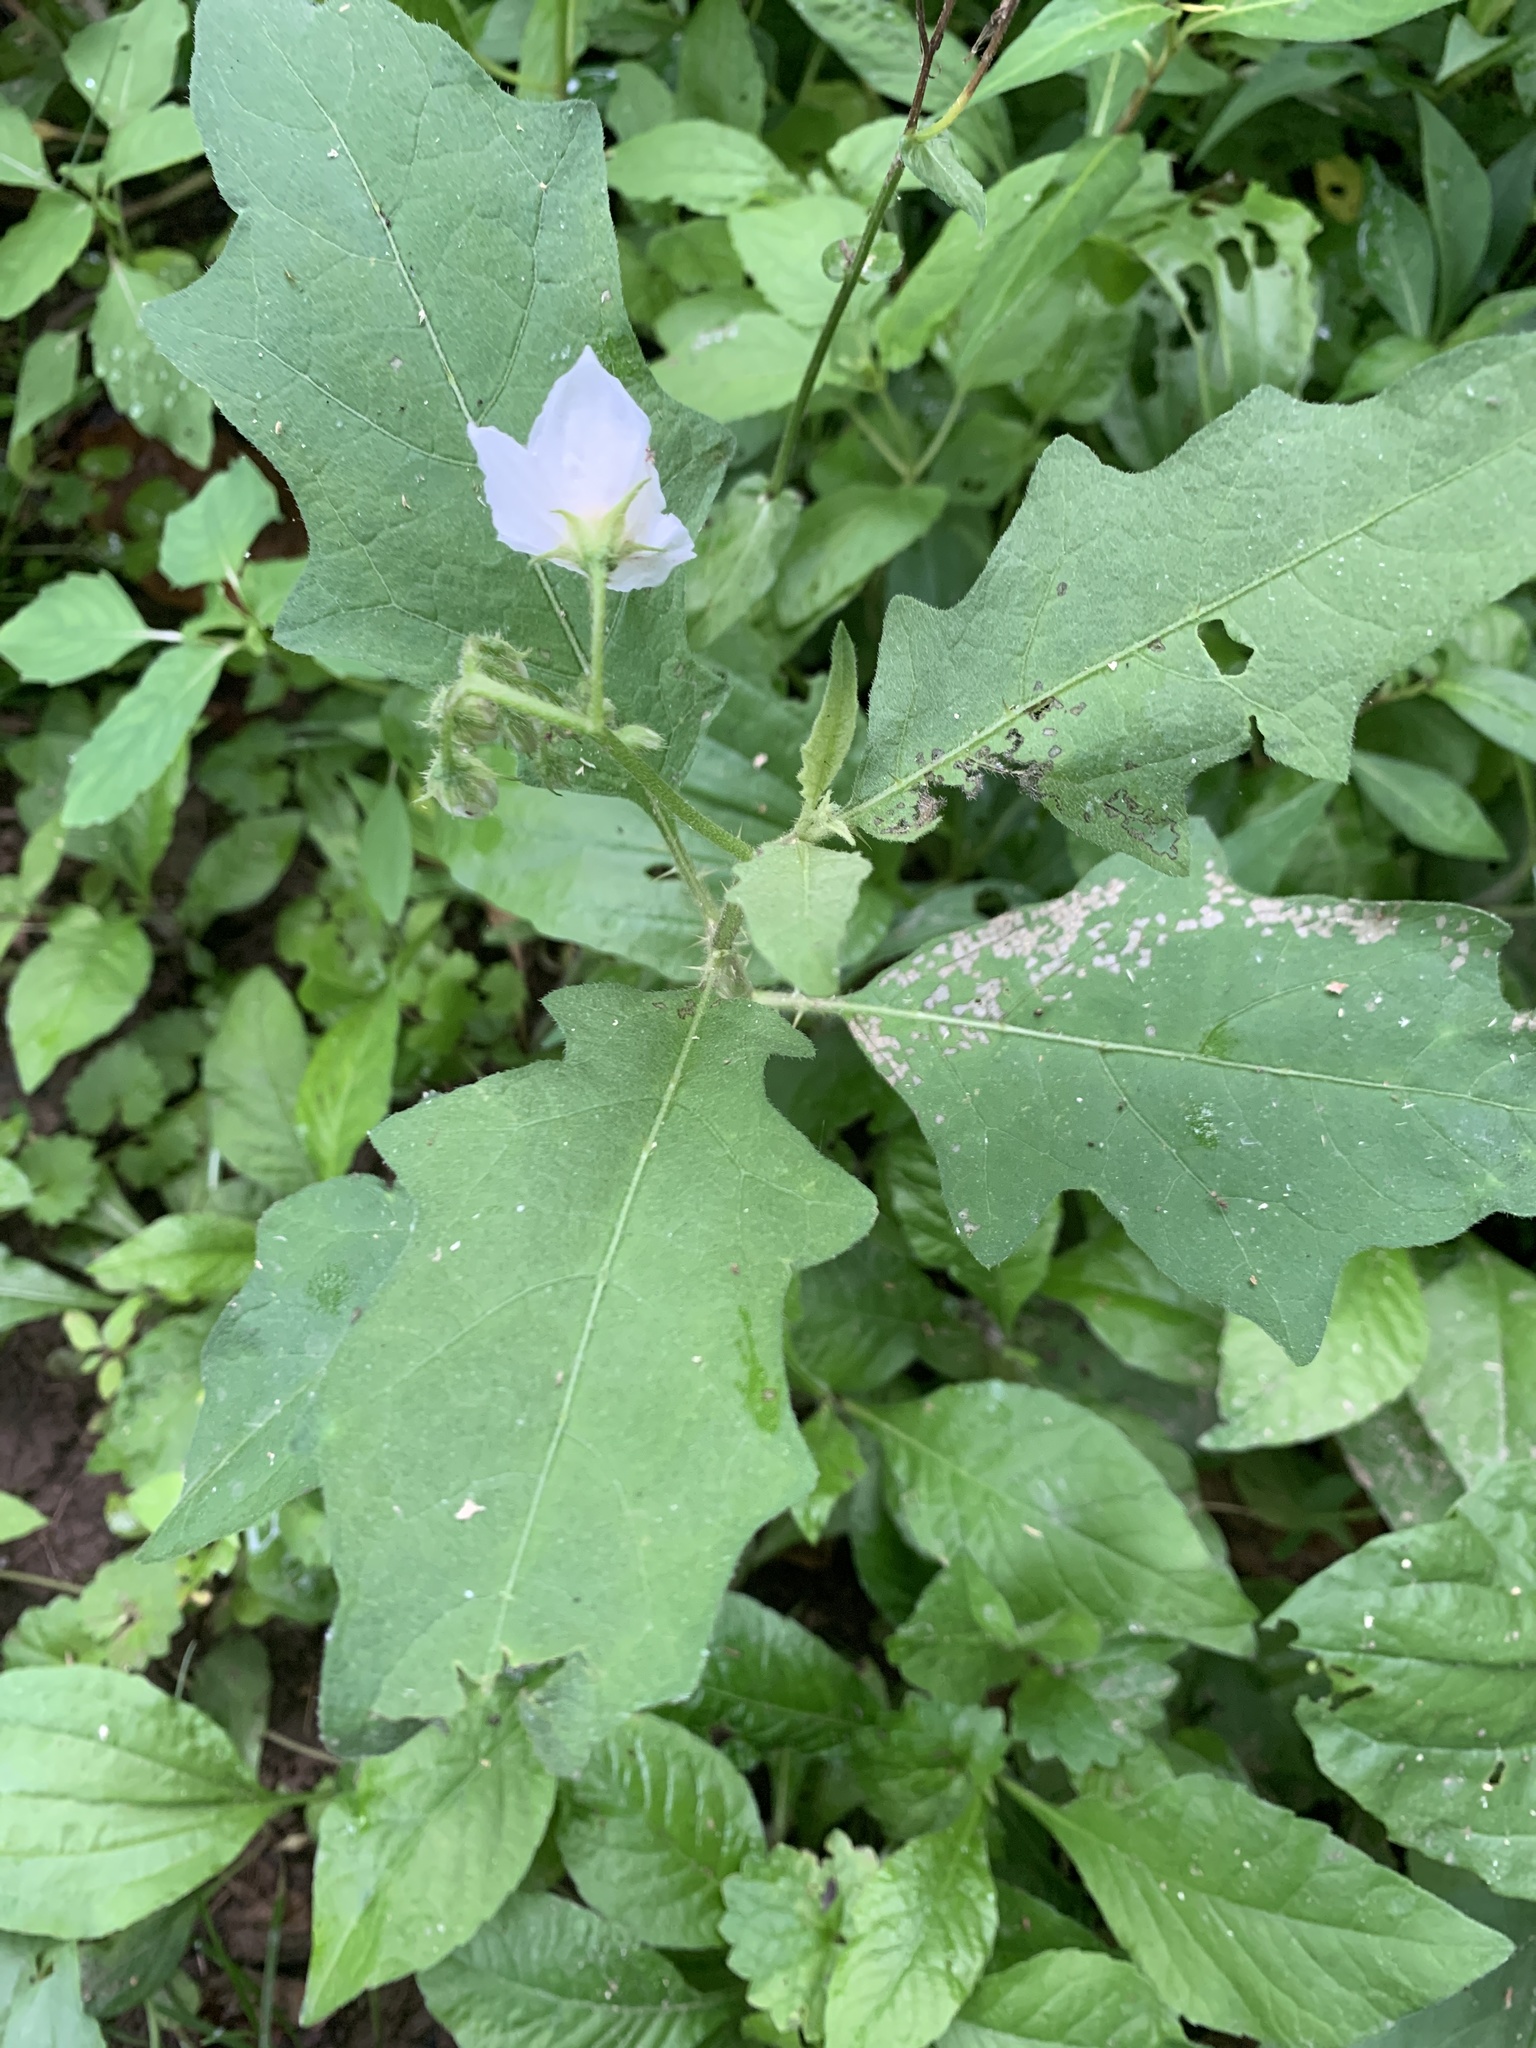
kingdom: Plantae
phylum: Tracheophyta
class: Magnoliopsida
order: Solanales
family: Solanaceae
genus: Solanum
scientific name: Solanum carolinense
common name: Horse-nettle
